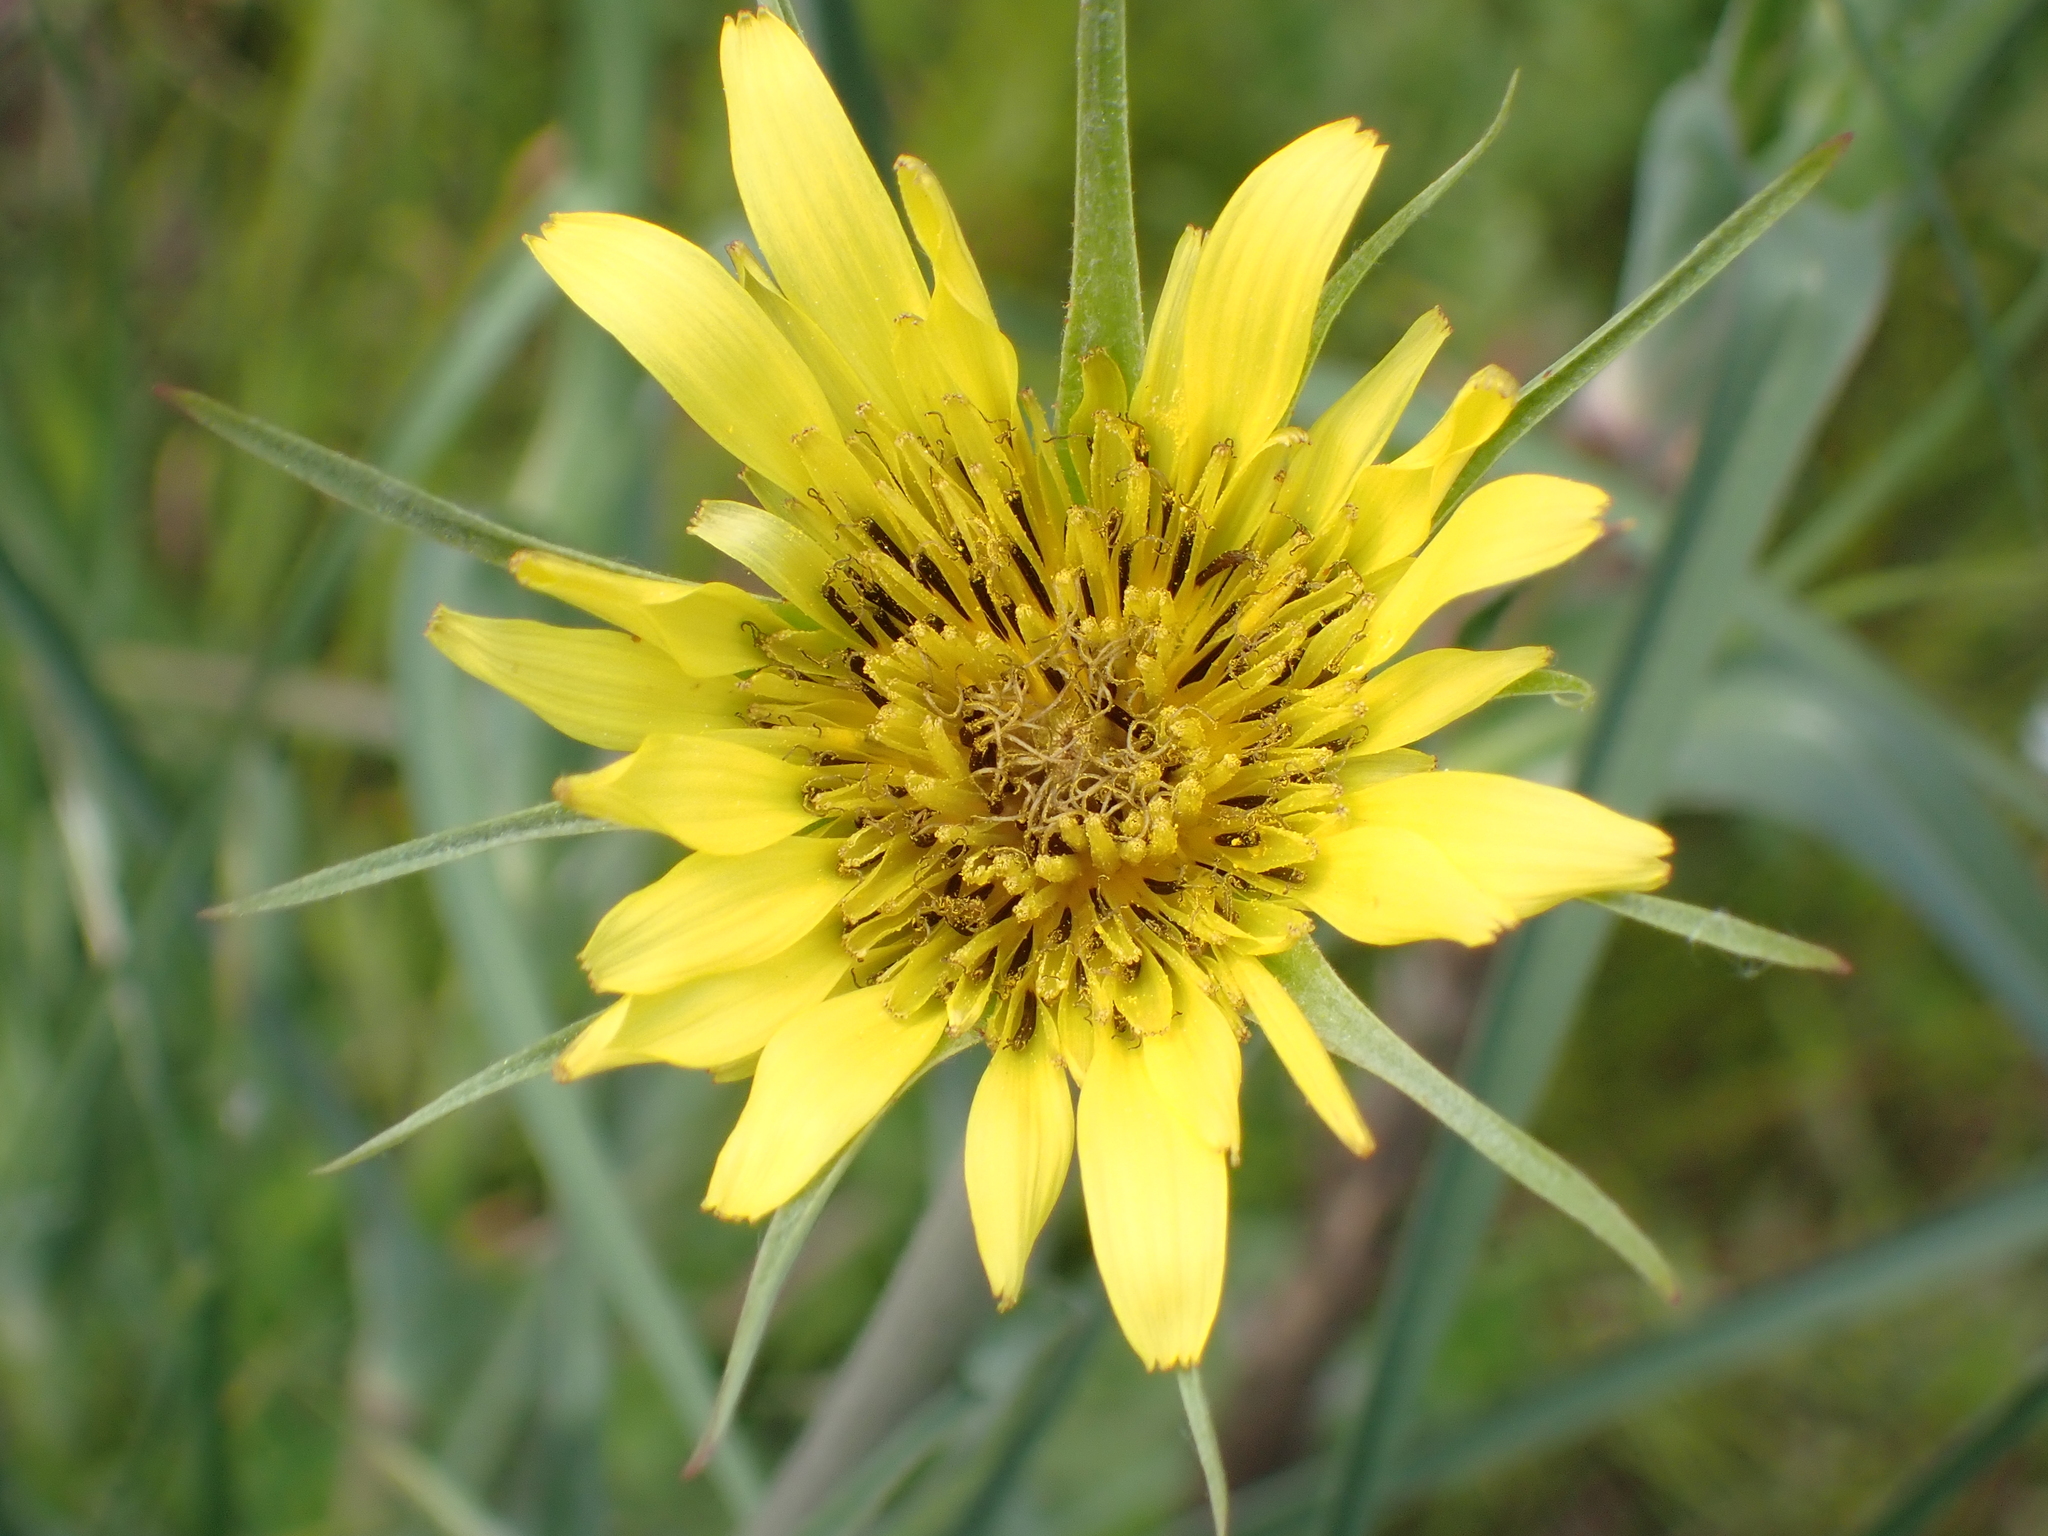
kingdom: Plantae
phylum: Tracheophyta
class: Magnoliopsida
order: Asterales
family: Asteraceae
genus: Tragopogon
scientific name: Tragopogon dubius
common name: Yellow salsify
